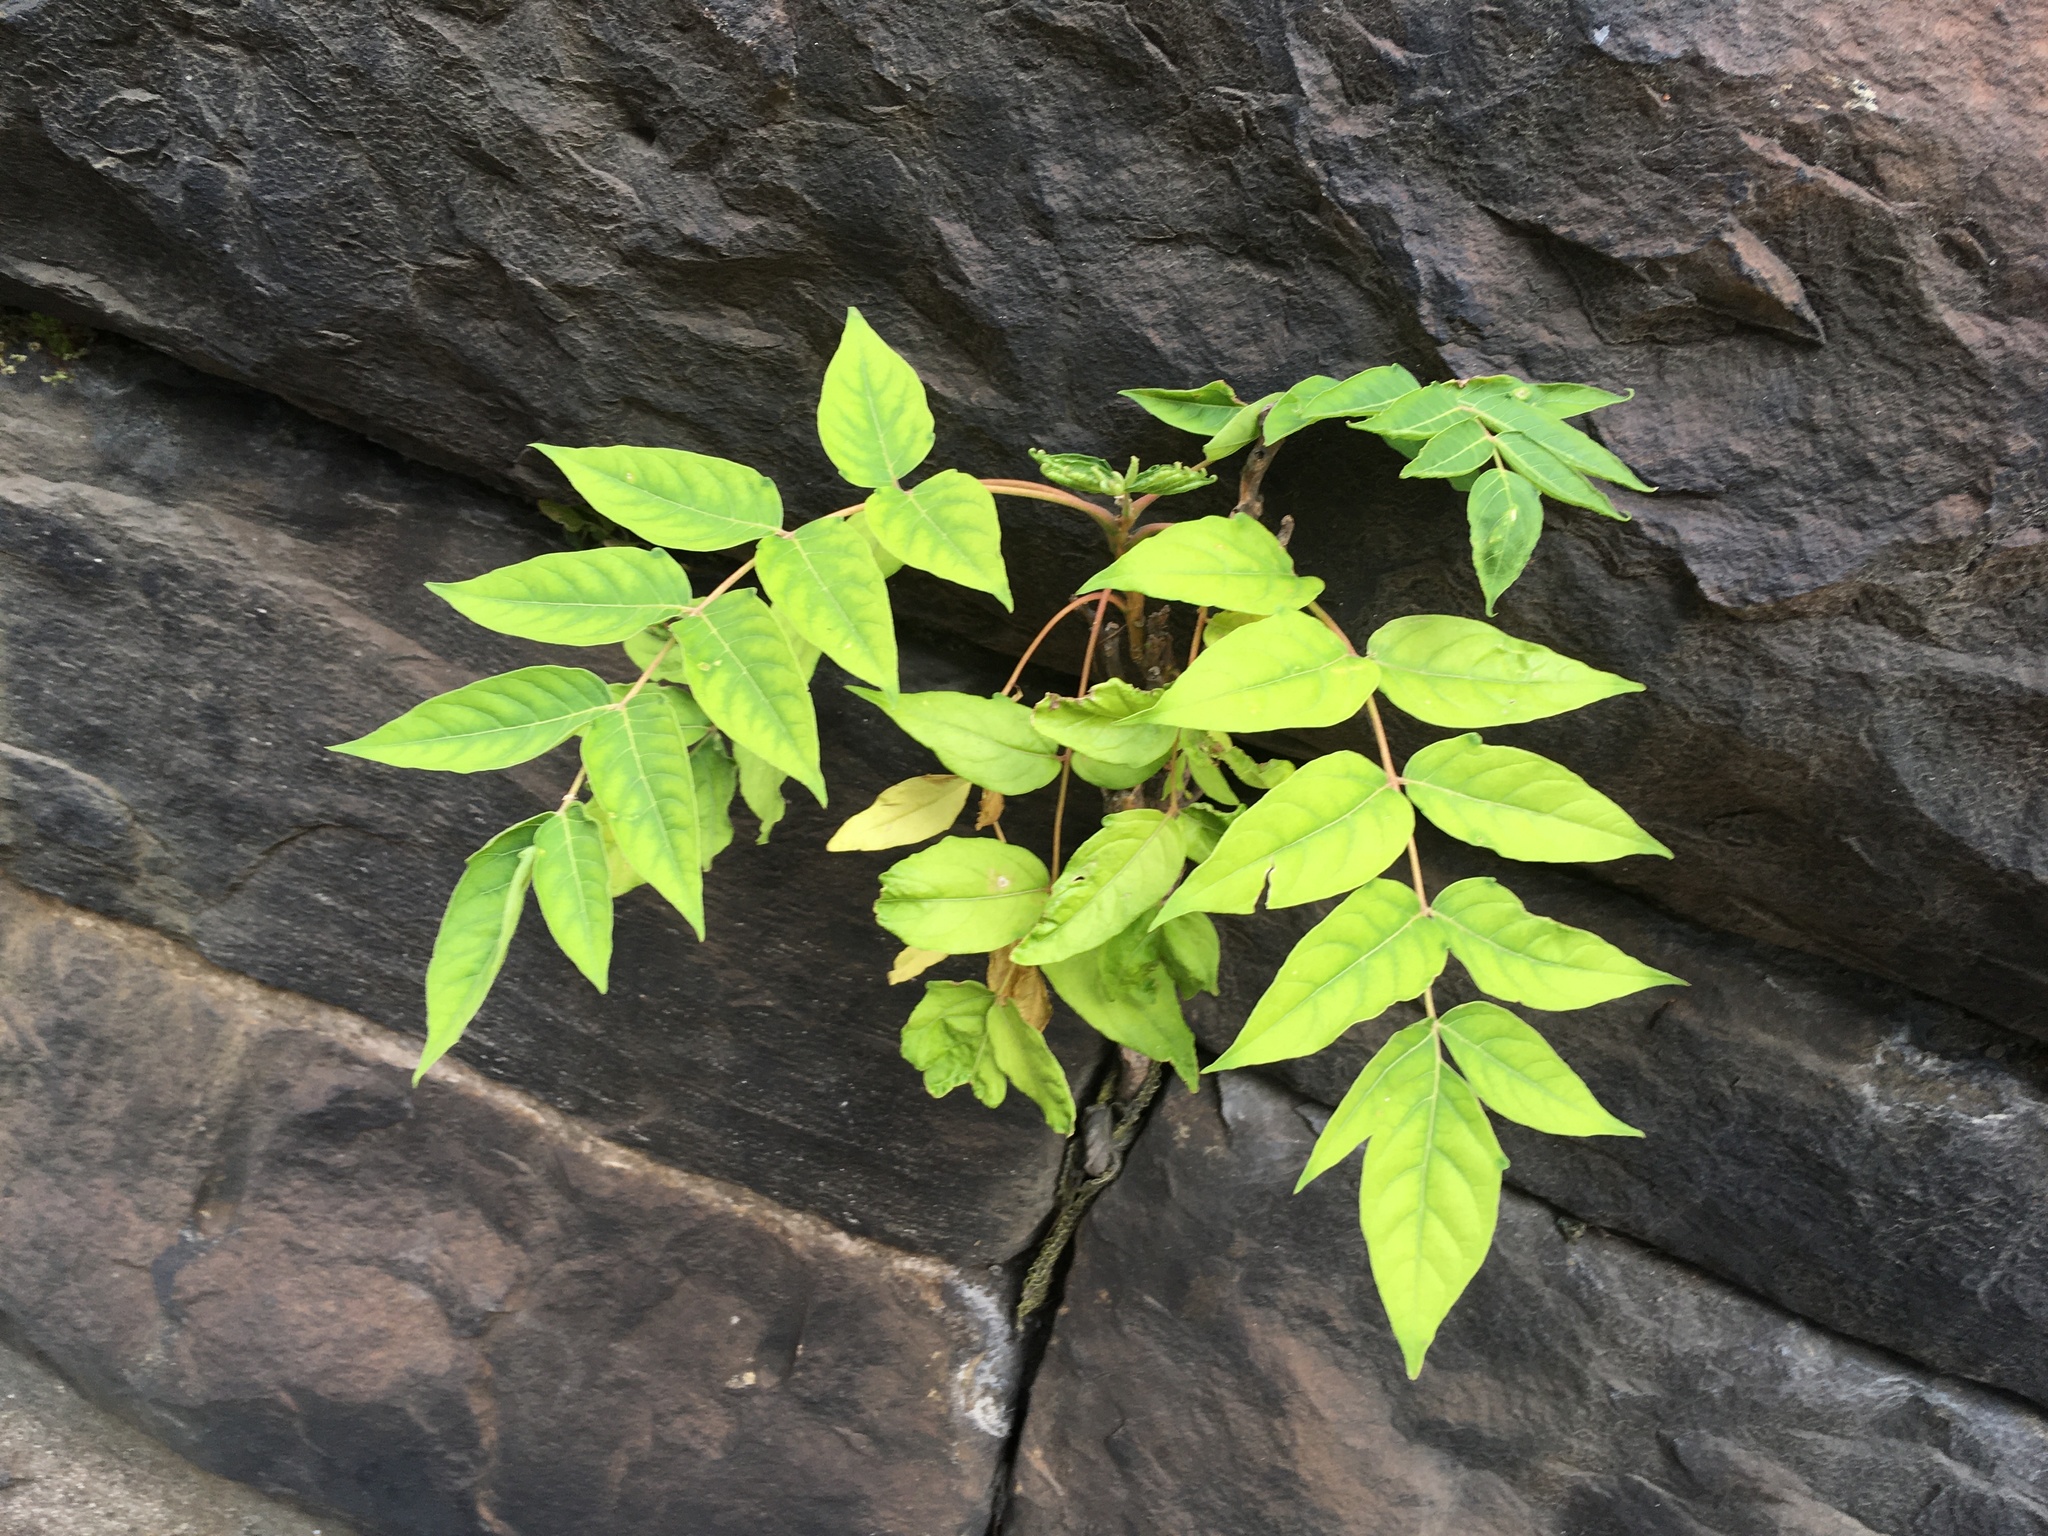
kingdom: Plantae
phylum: Tracheophyta
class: Magnoliopsida
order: Sapindales
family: Simaroubaceae
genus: Ailanthus
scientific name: Ailanthus altissima
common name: Tree-of-heaven
